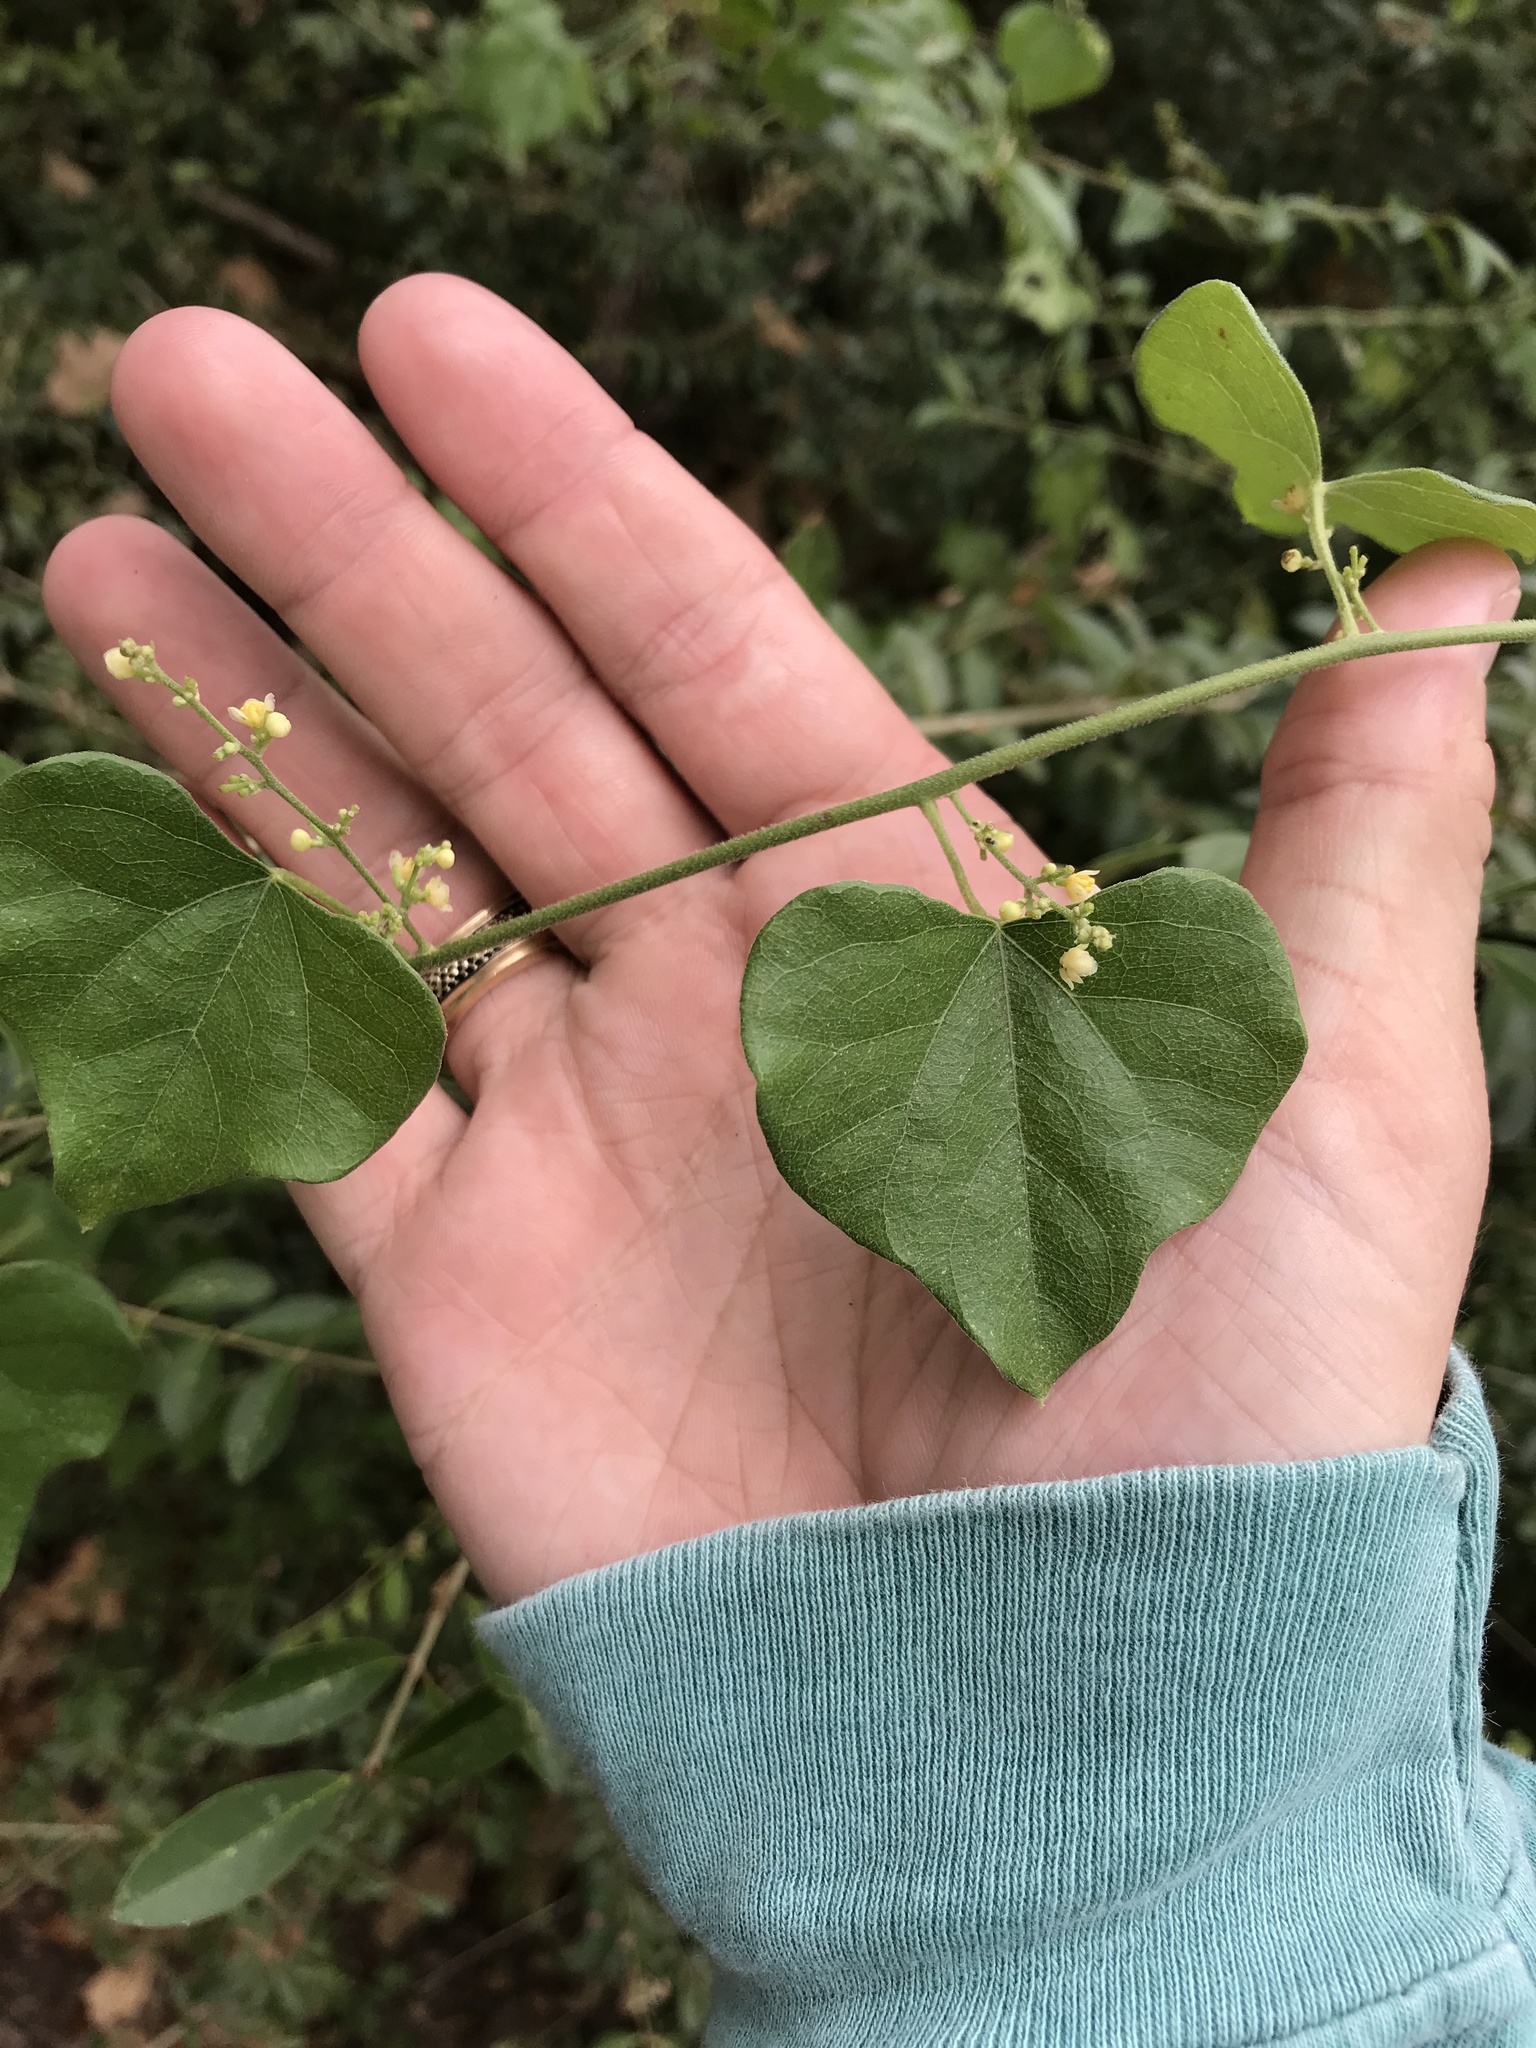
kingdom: Plantae
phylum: Tracheophyta
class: Magnoliopsida
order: Ranunculales
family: Menispermaceae
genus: Cocculus
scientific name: Cocculus carolinus
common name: Carolina moonseed
